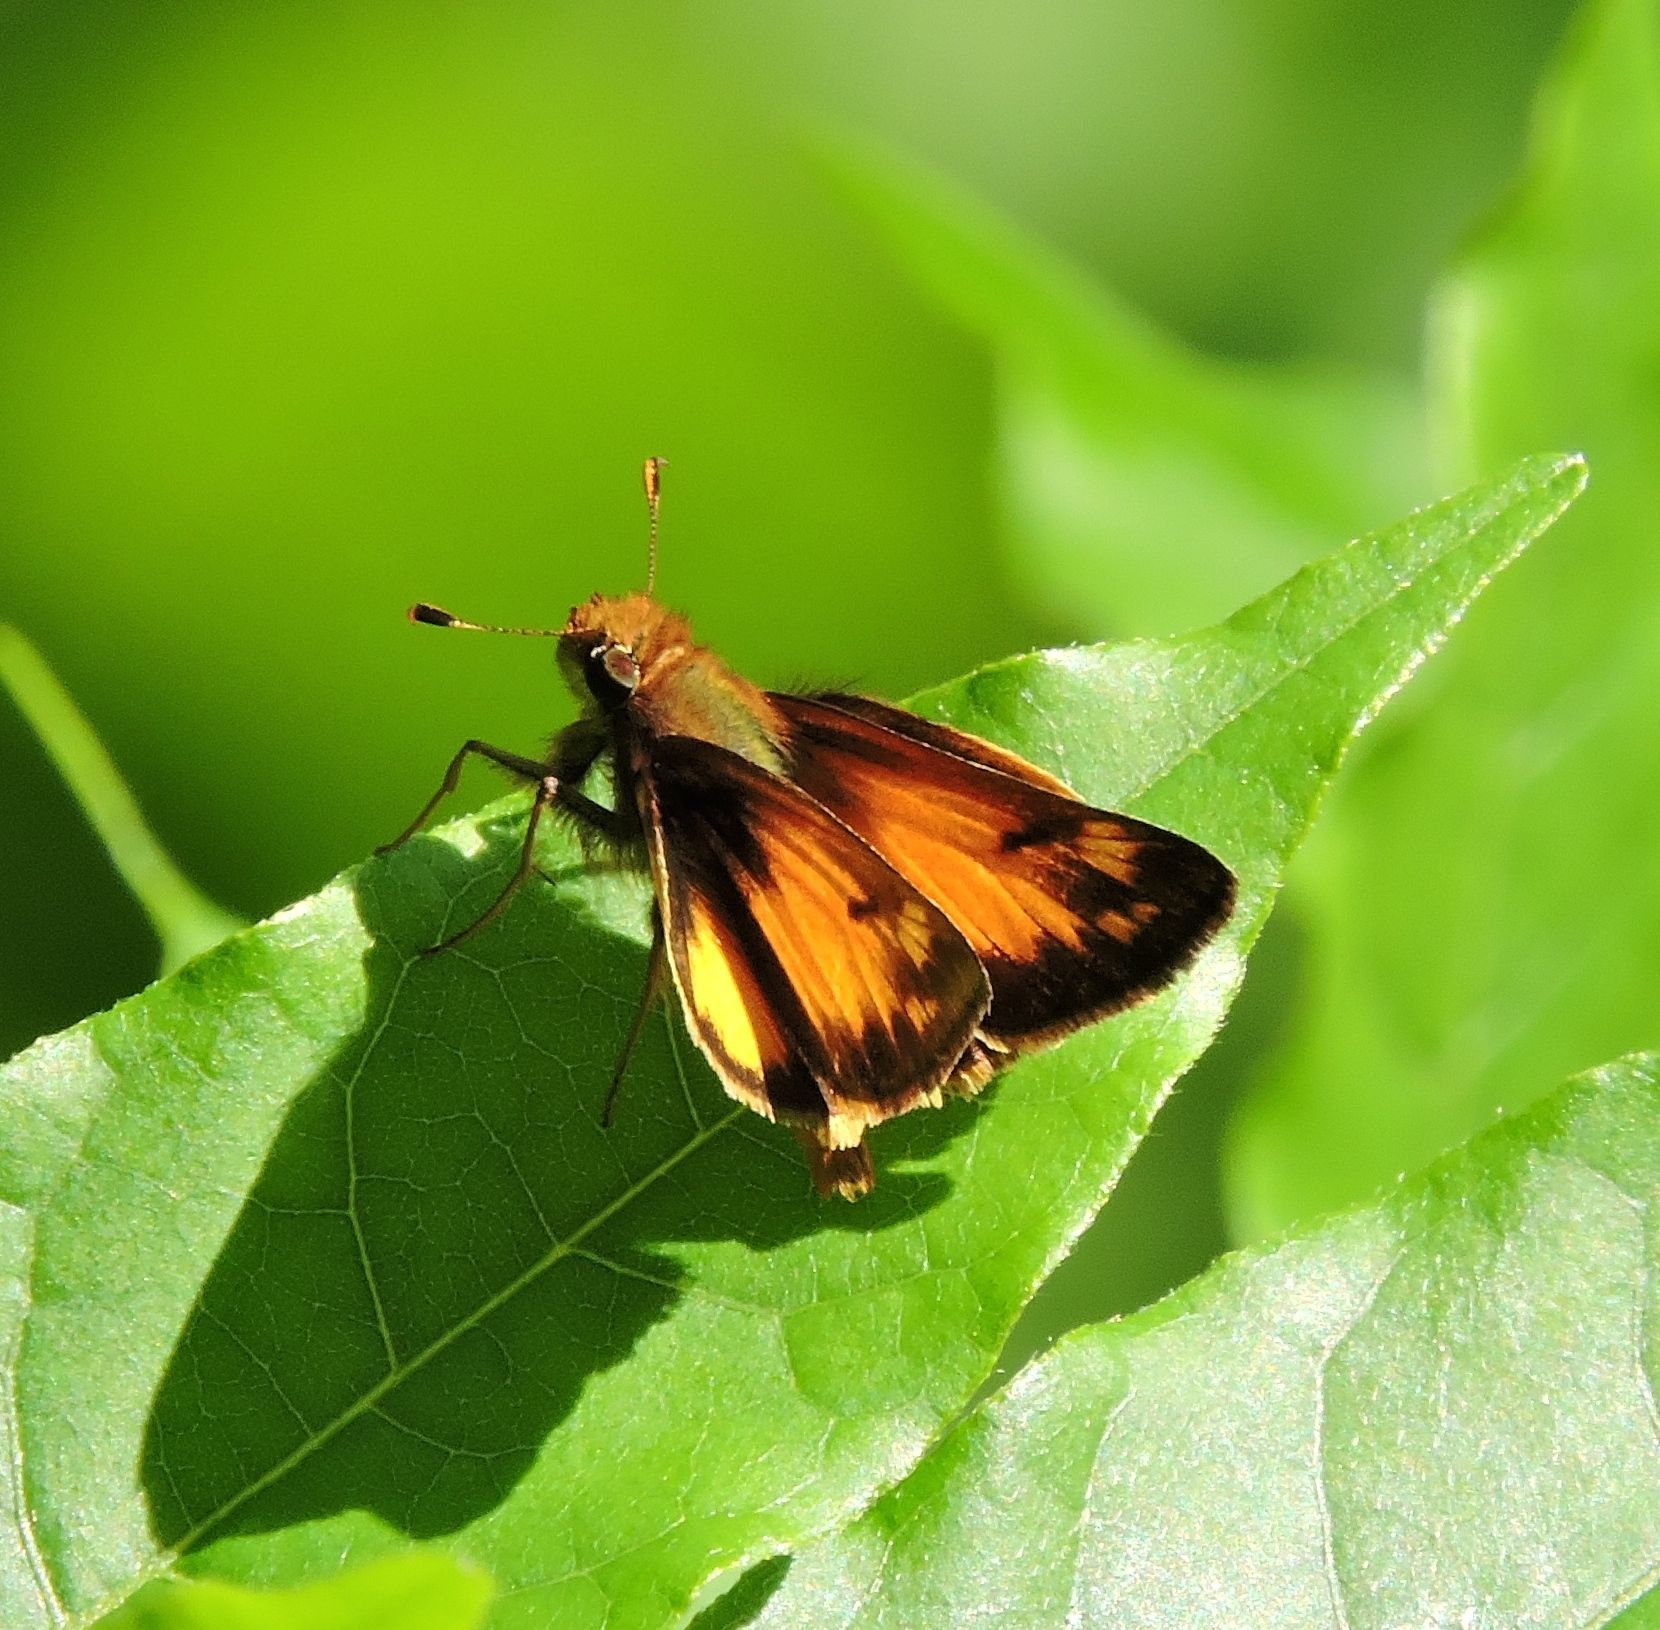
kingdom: Animalia
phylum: Arthropoda
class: Insecta
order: Lepidoptera
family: Hesperiidae
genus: Lon
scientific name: Lon zabulon
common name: Zabulon skipper
